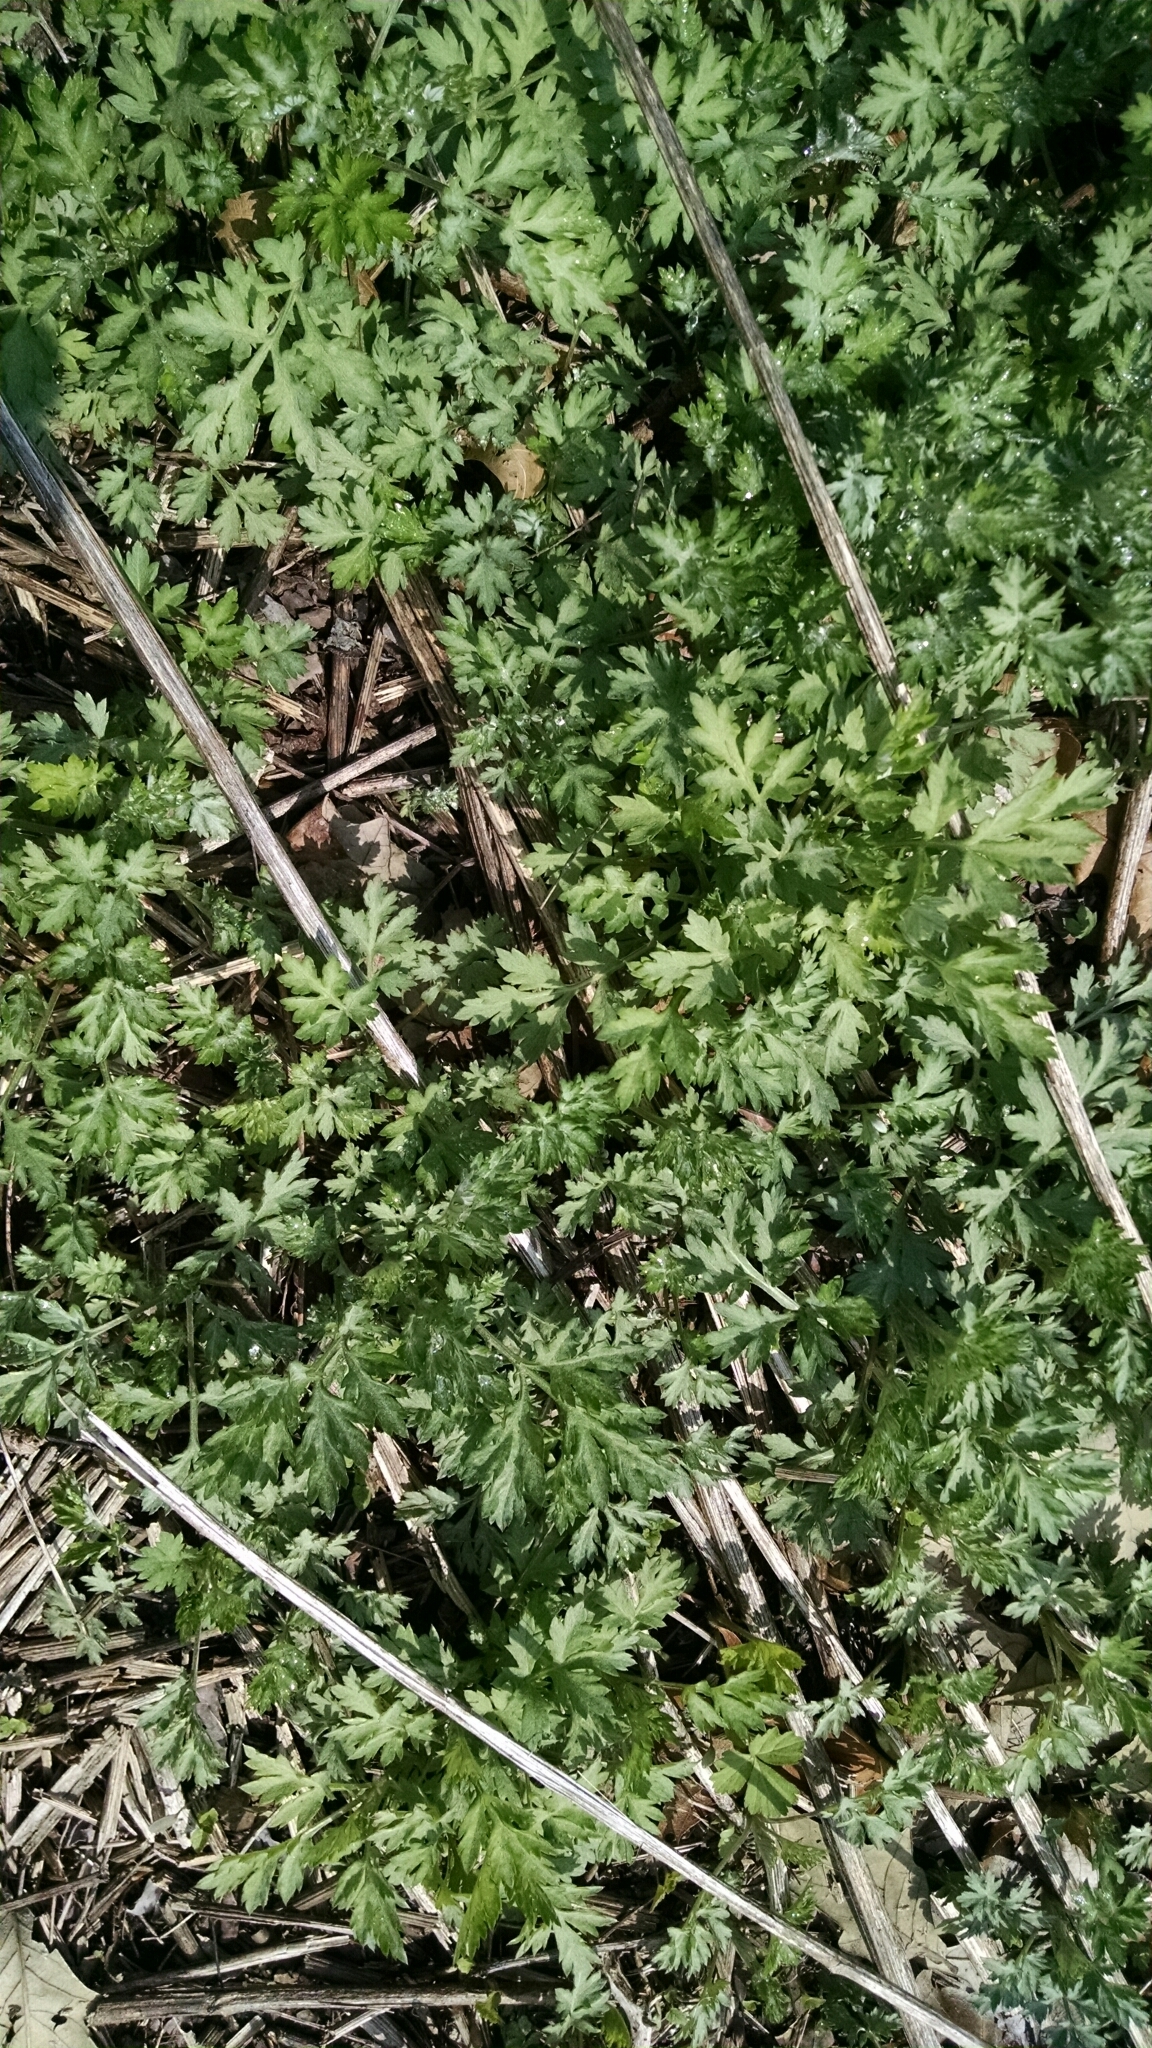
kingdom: Plantae
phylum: Tracheophyta
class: Magnoliopsida
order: Asterales
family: Asteraceae
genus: Artemisia
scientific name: Artemisia vulgaris
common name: Mugwort
